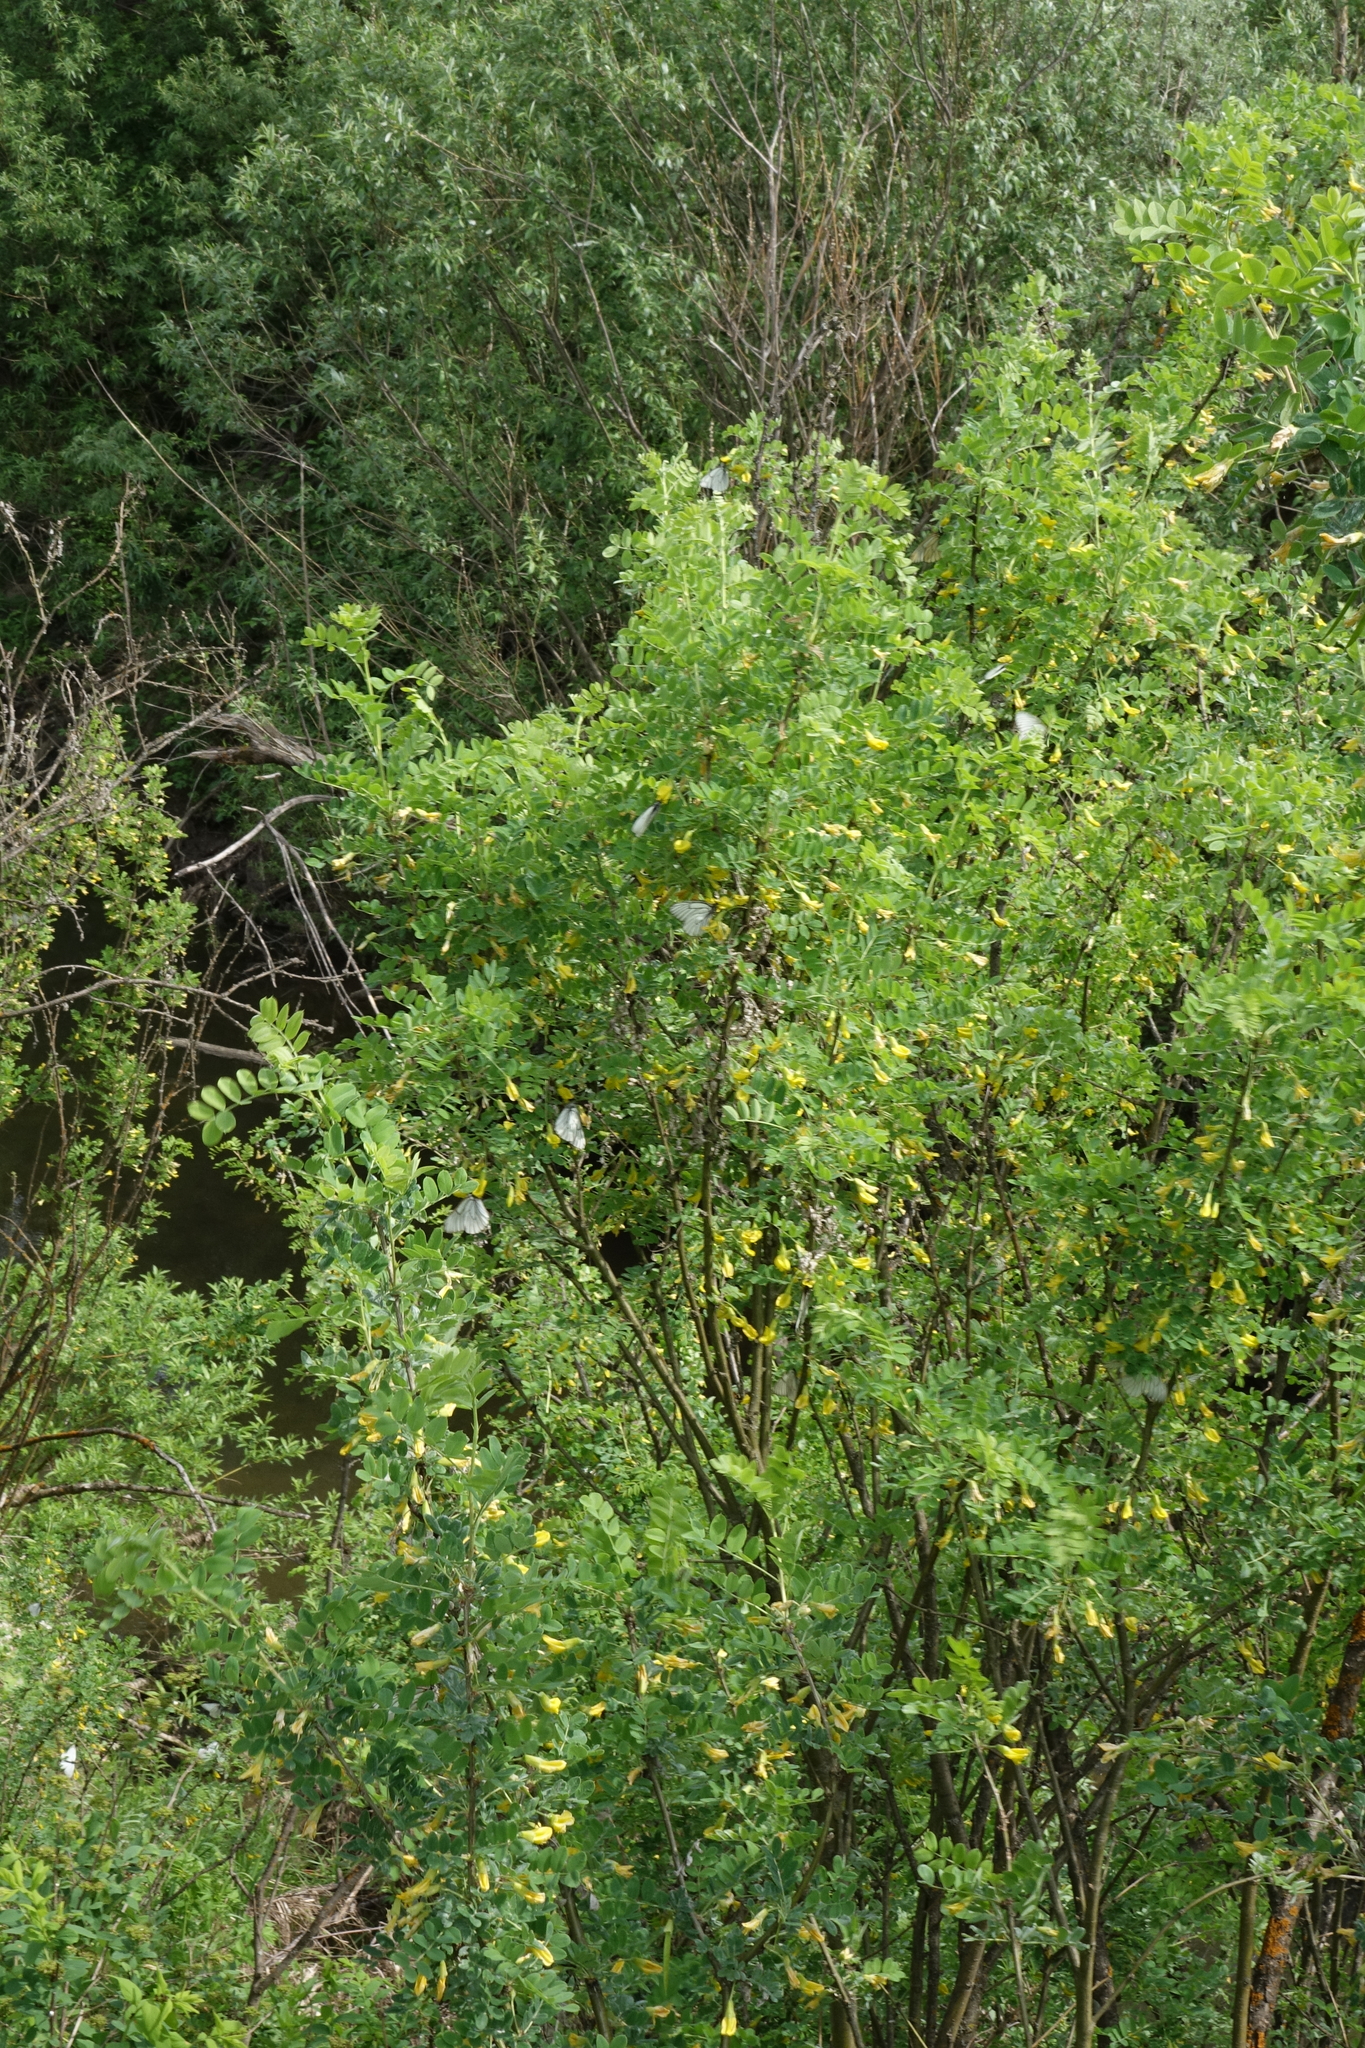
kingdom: Plantae
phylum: Tracheophyta
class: Magnoliopsida
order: Fabales
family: Fabaceae
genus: Caragana
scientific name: Caragana arborescens
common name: Siberian peashrub
